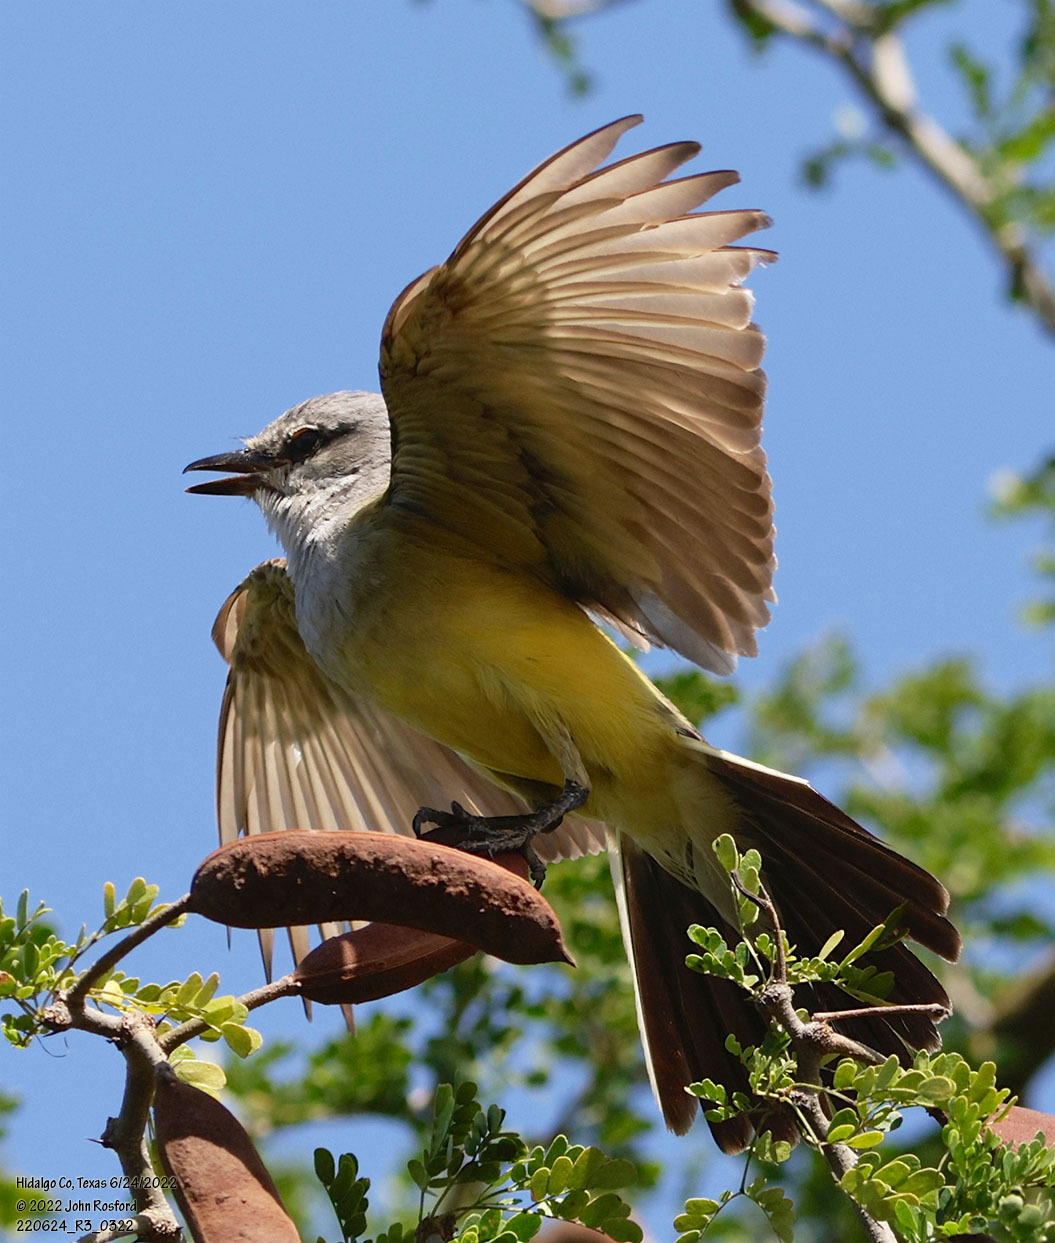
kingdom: Animalia
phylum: Chordata
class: Aves
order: Passeriformes
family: Tyrannidae
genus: Tyrannus
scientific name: Tyrannus verticalis
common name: Western kingbird
